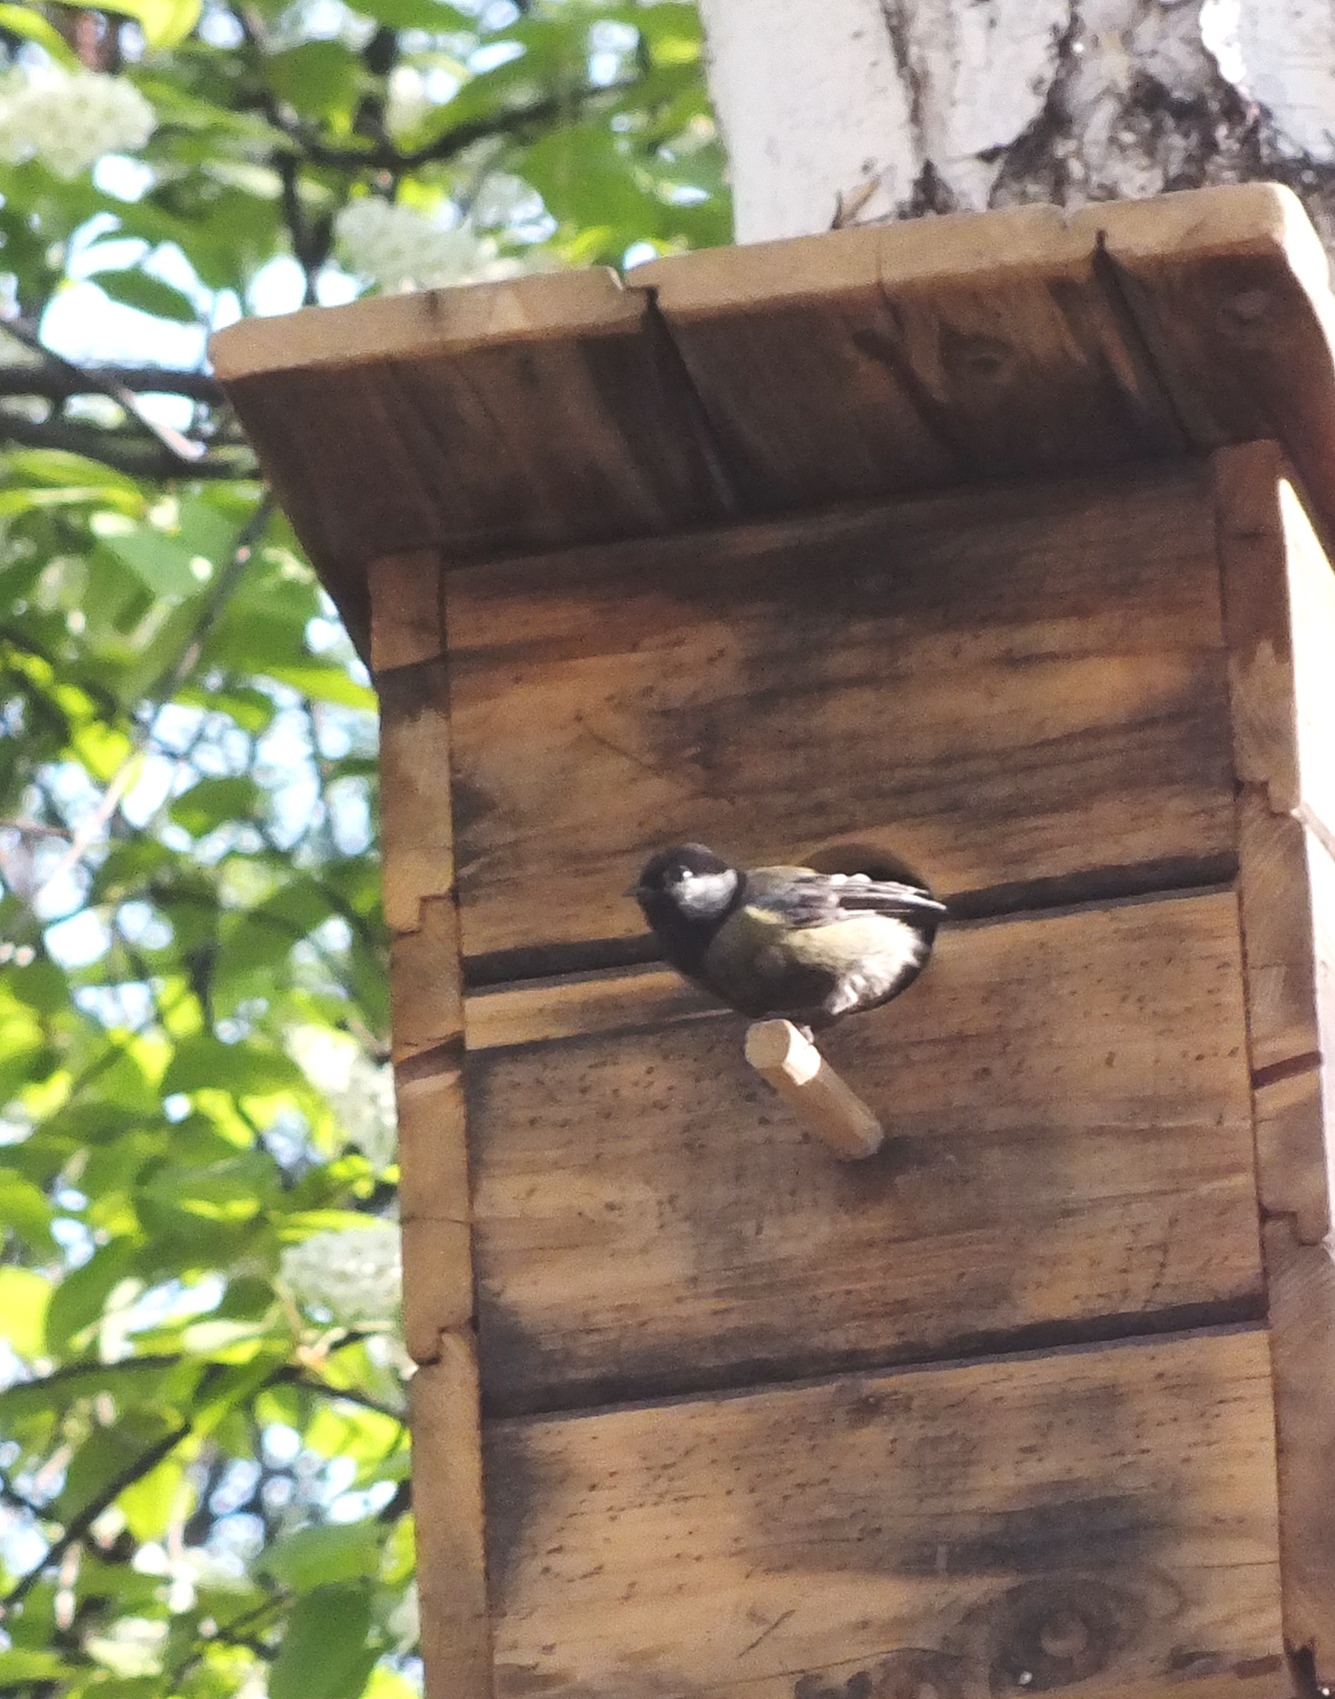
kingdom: Animalia
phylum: Chordata
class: Aves
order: Passeriformes
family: Paridae
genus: Parus
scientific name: Parus major
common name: Great tit
